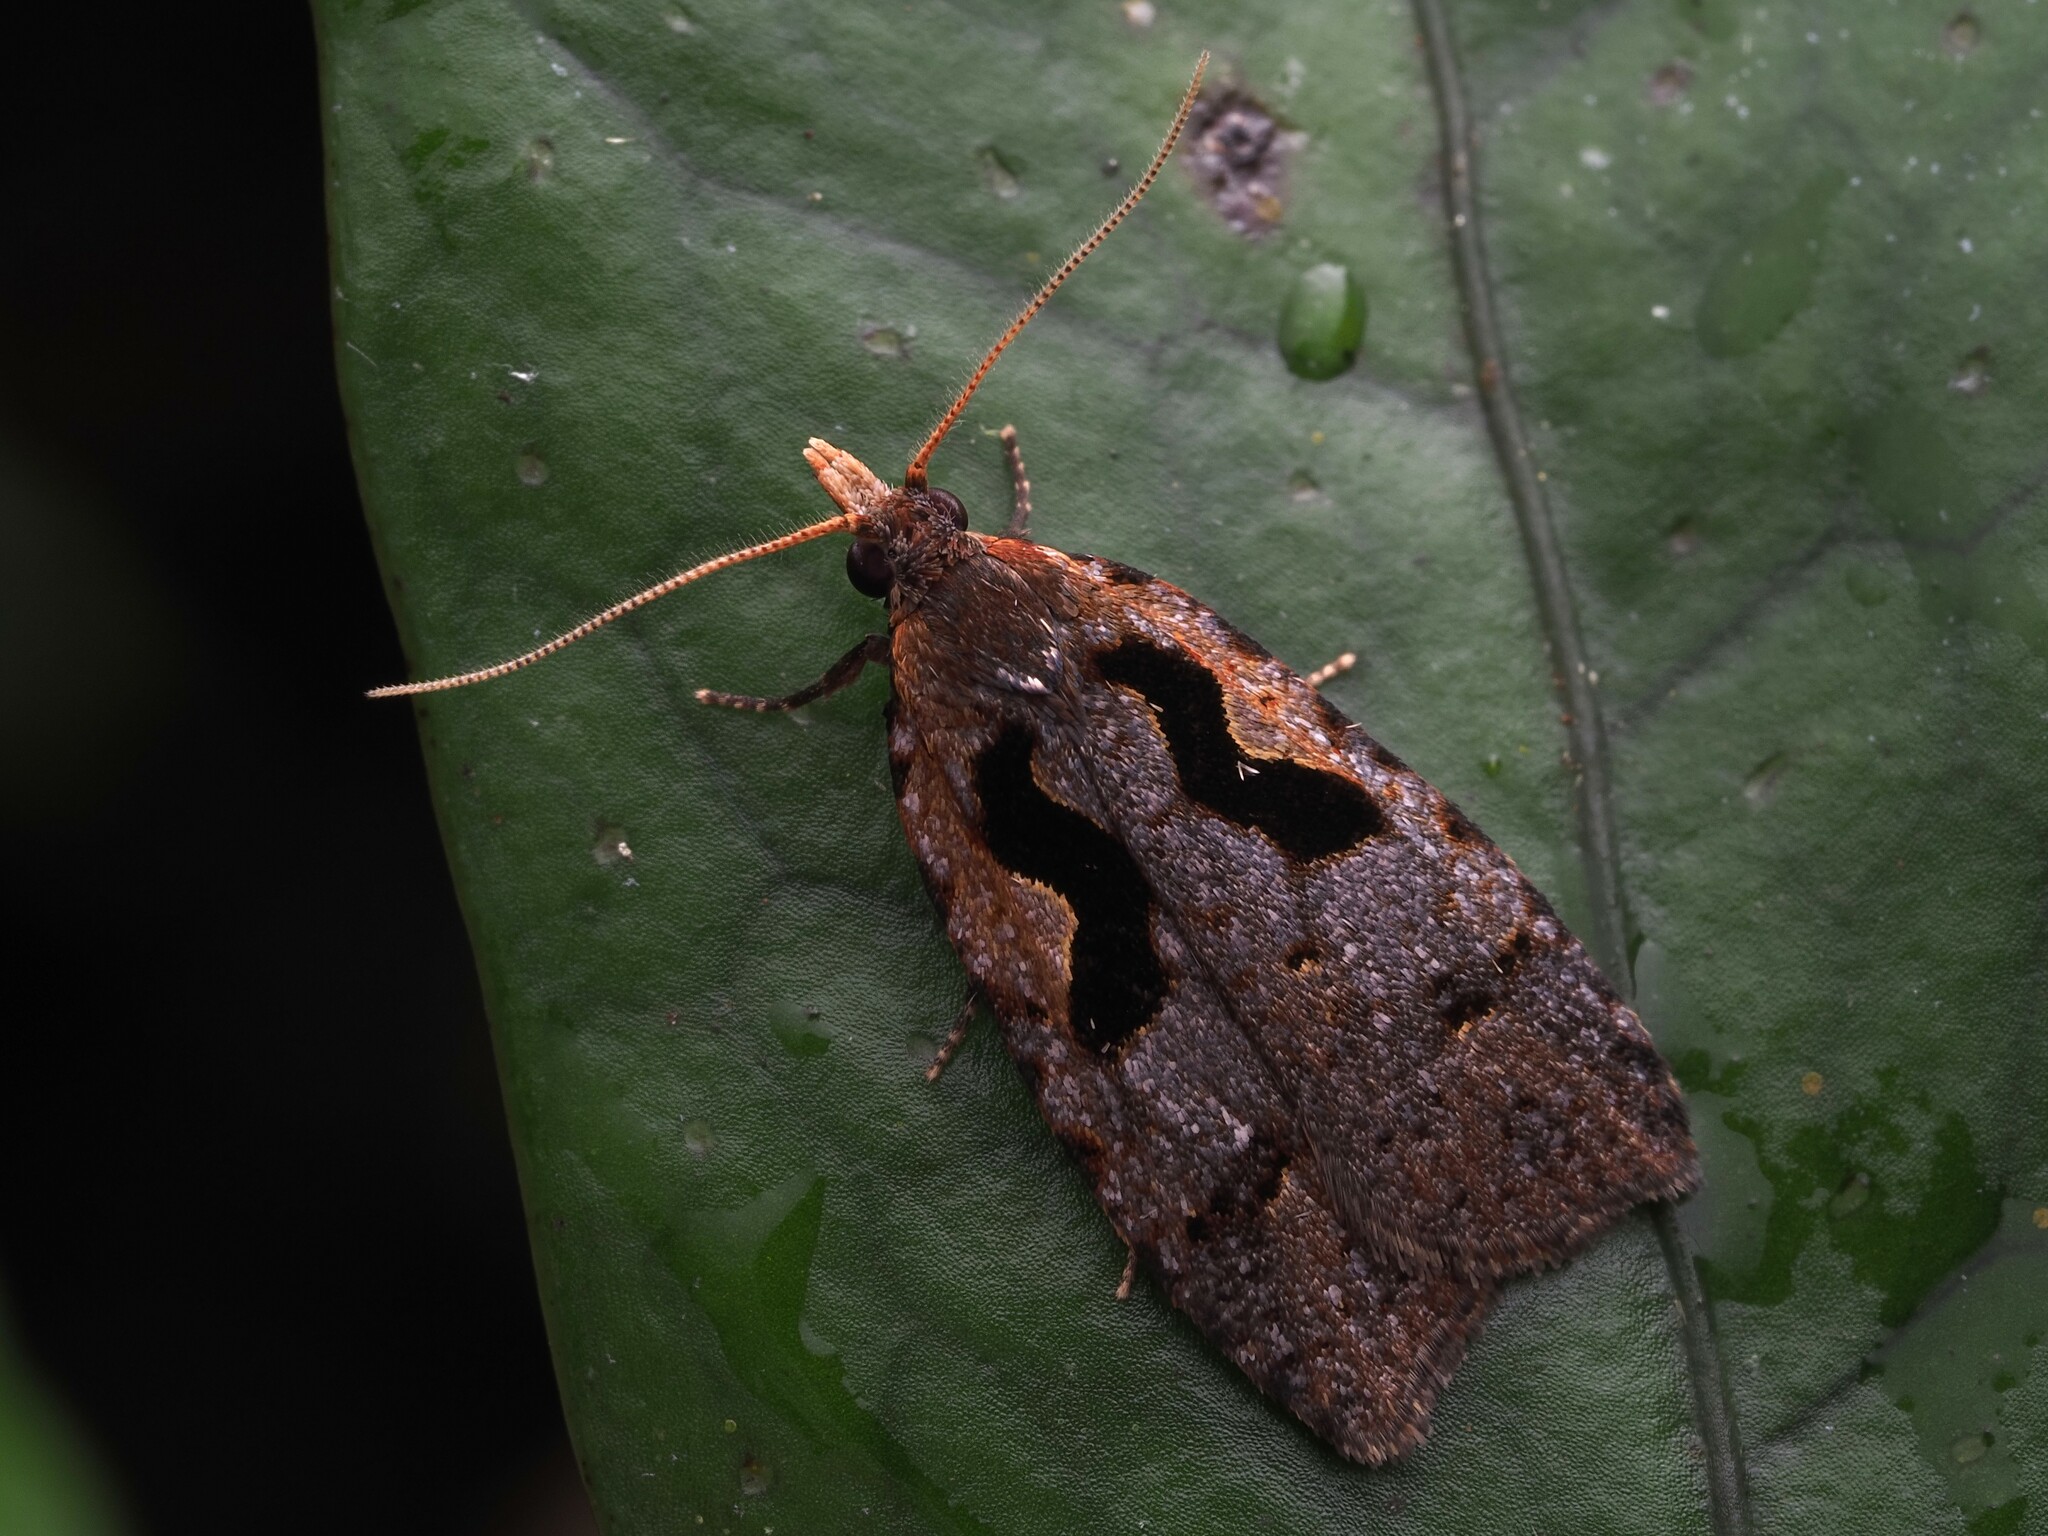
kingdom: Animalia
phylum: Arthropoda
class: Insecta
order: Lepidoptera
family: Tortricidae
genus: Cnephasia
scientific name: Cnephasia jactatana
